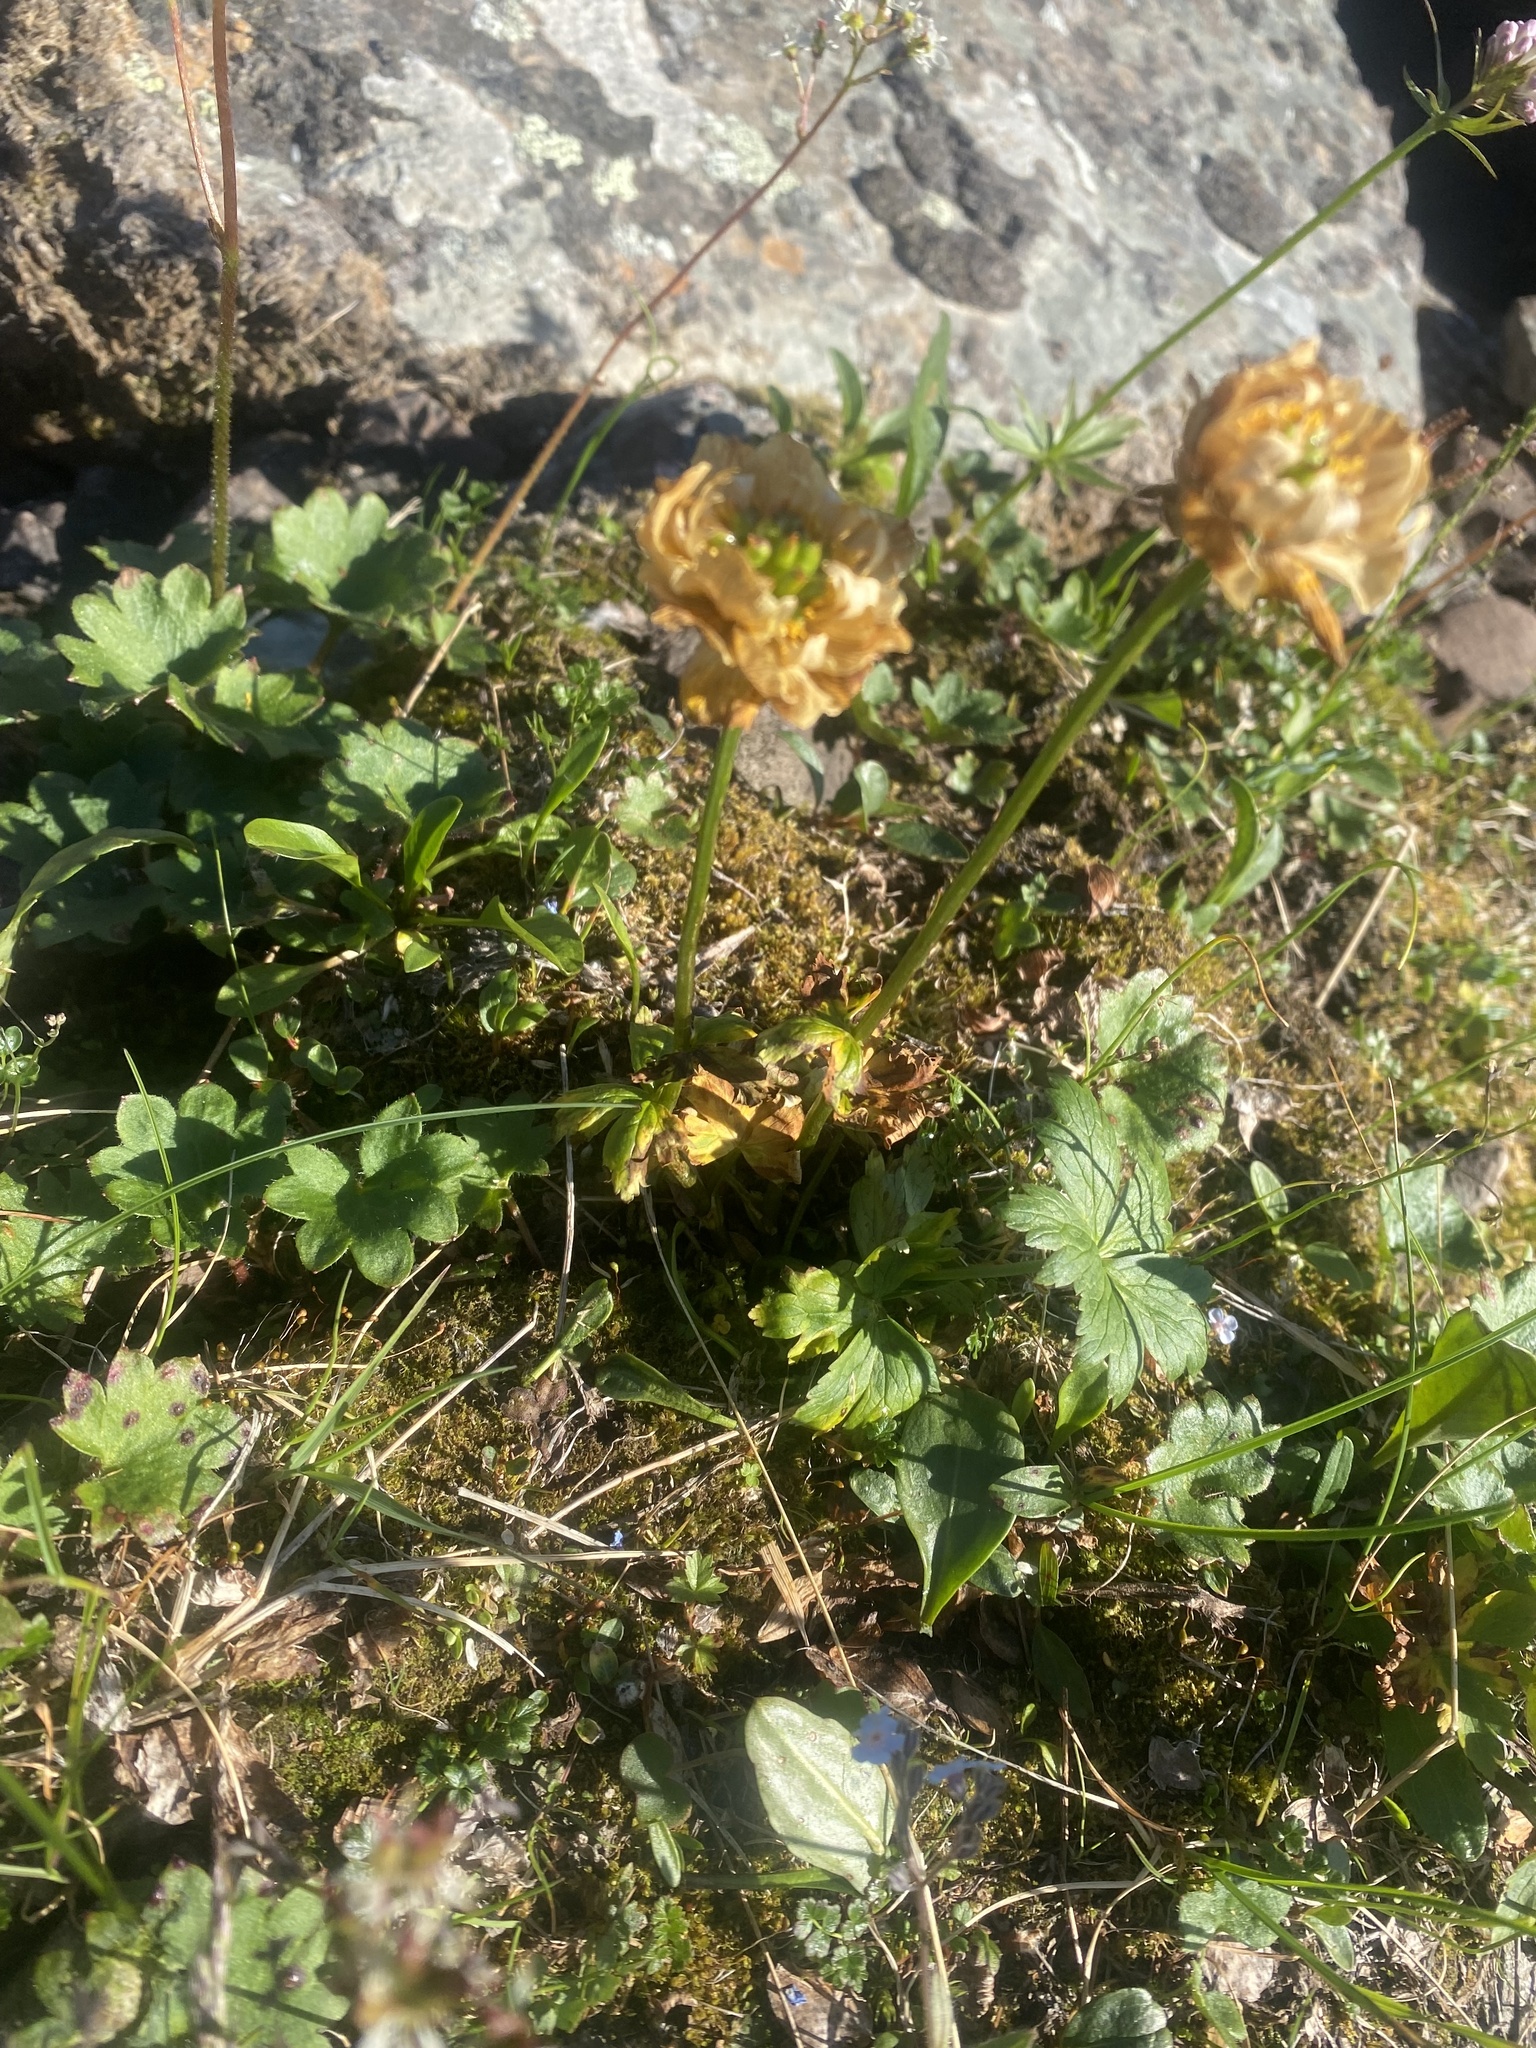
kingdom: Plantae
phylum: Tracheophyta
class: Magnoliopsida
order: Ranunculales
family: Ranunculaceae
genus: Trollius
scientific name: Trollius asiaticus
